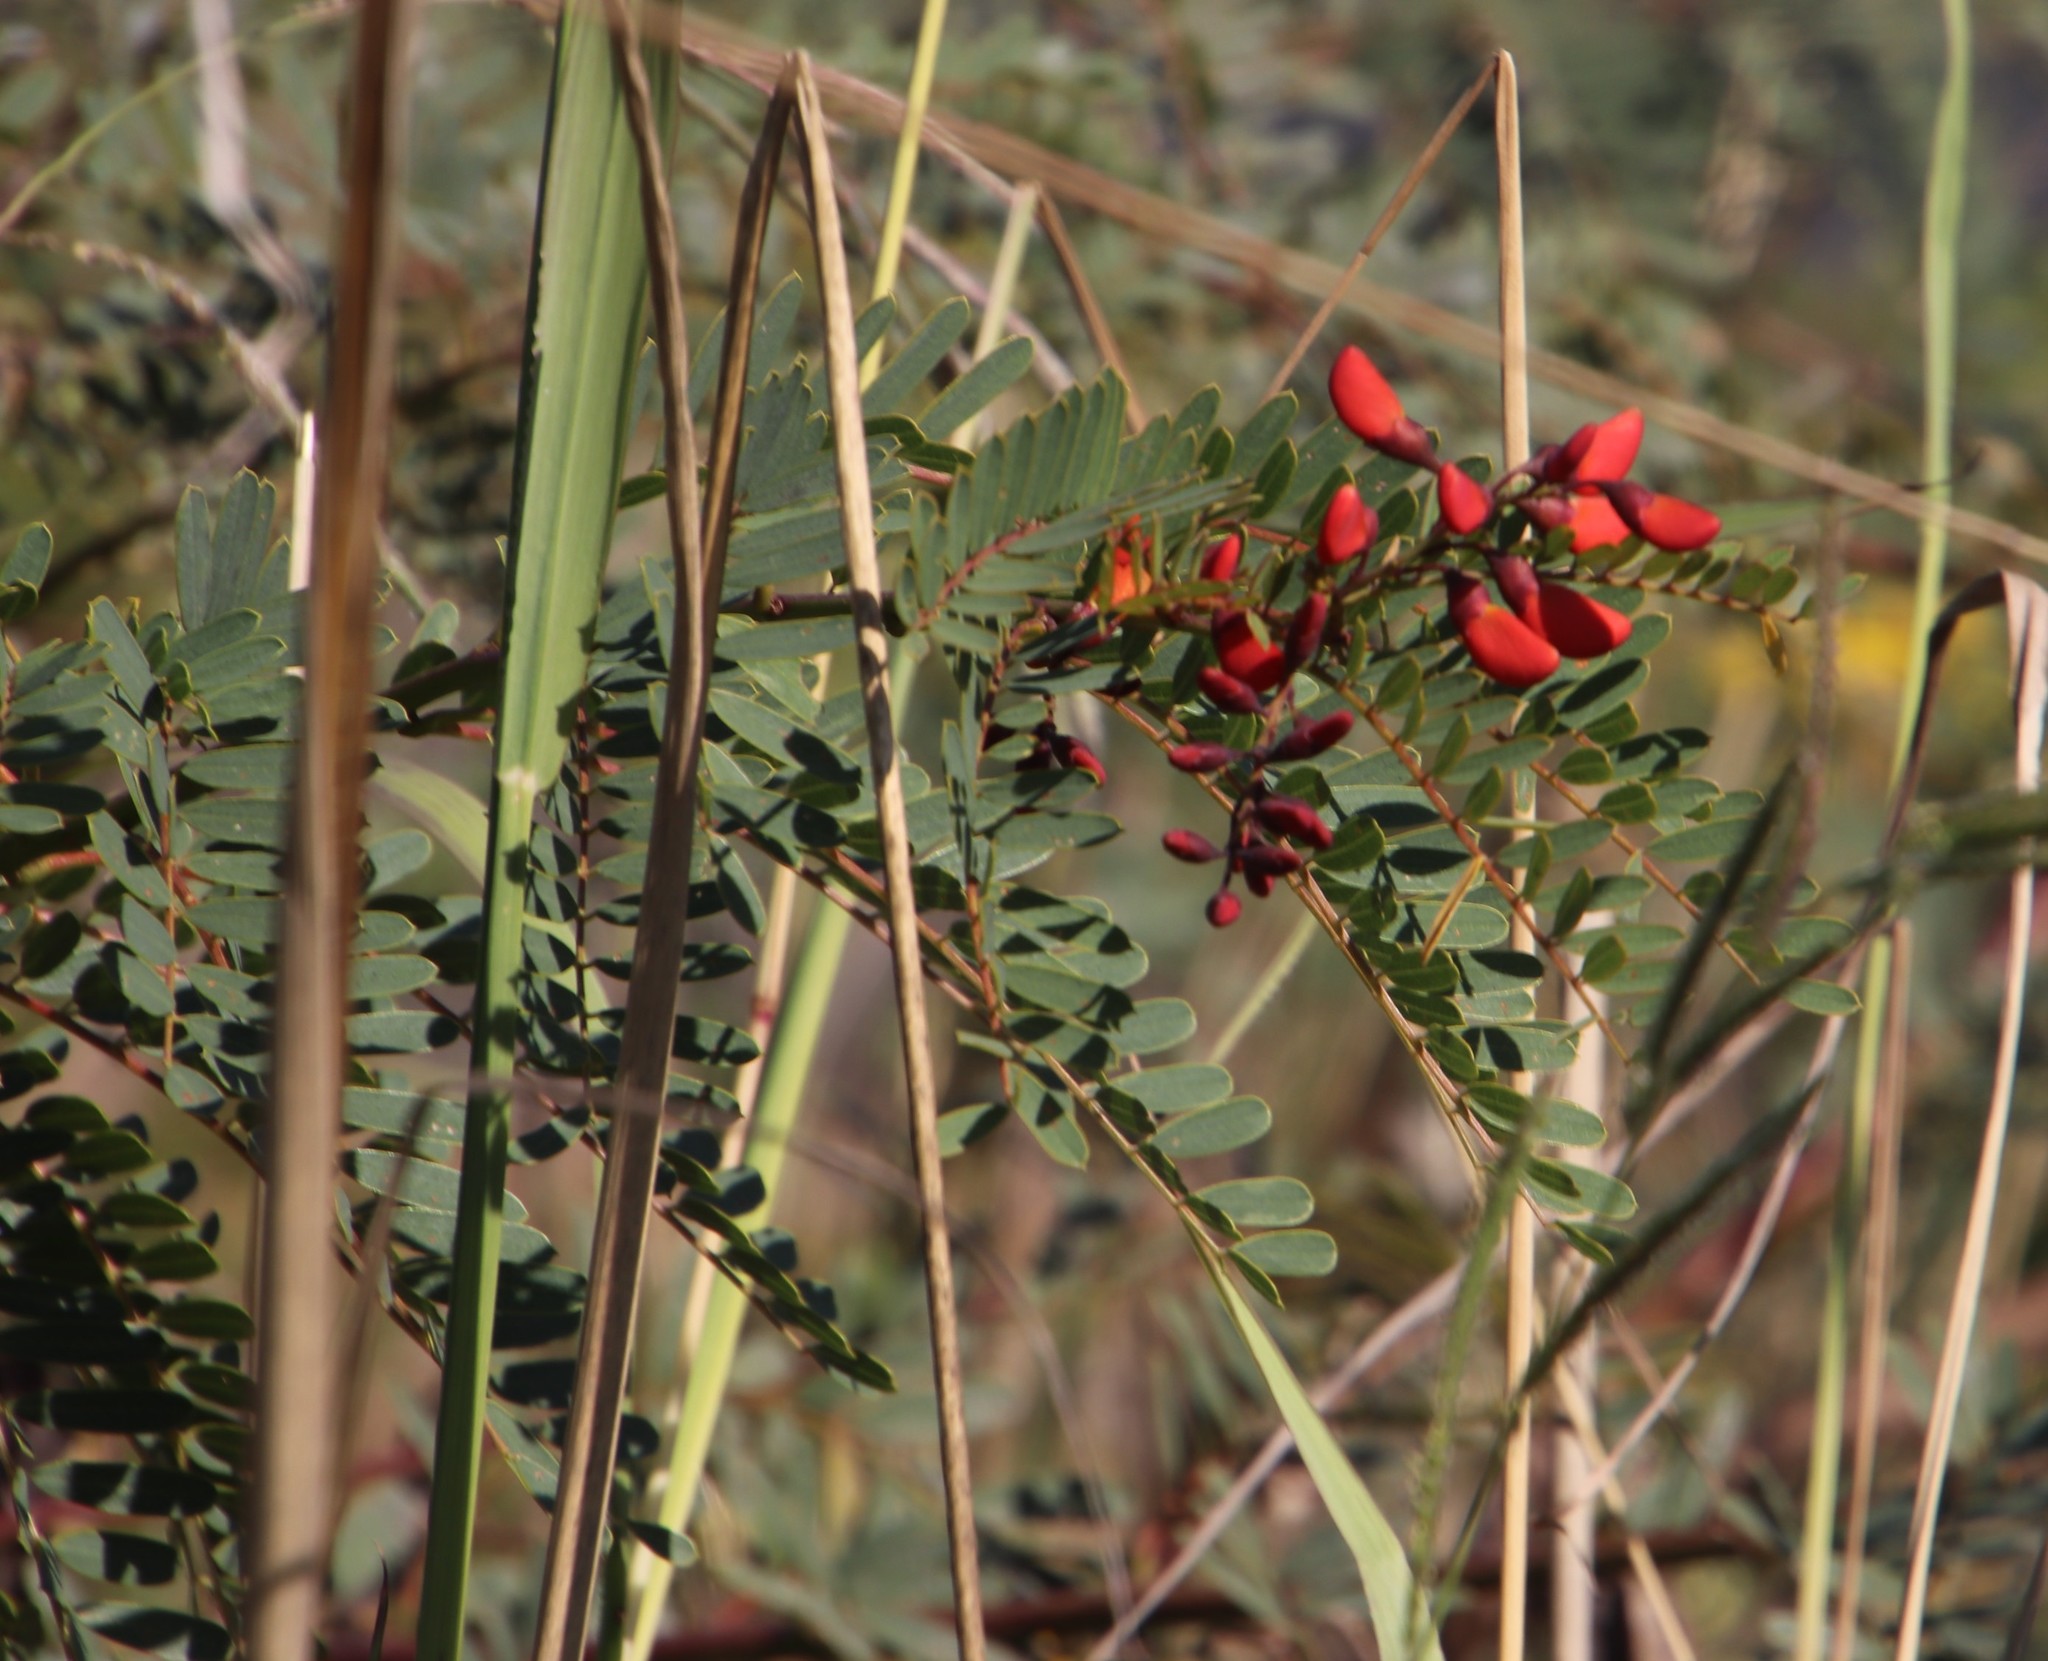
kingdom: Plantae
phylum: Tracheophyta
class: Magnoliopsida
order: Fabales
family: Fabaceae
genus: Sesbania
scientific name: Sesbania punicea
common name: Rattlebox
